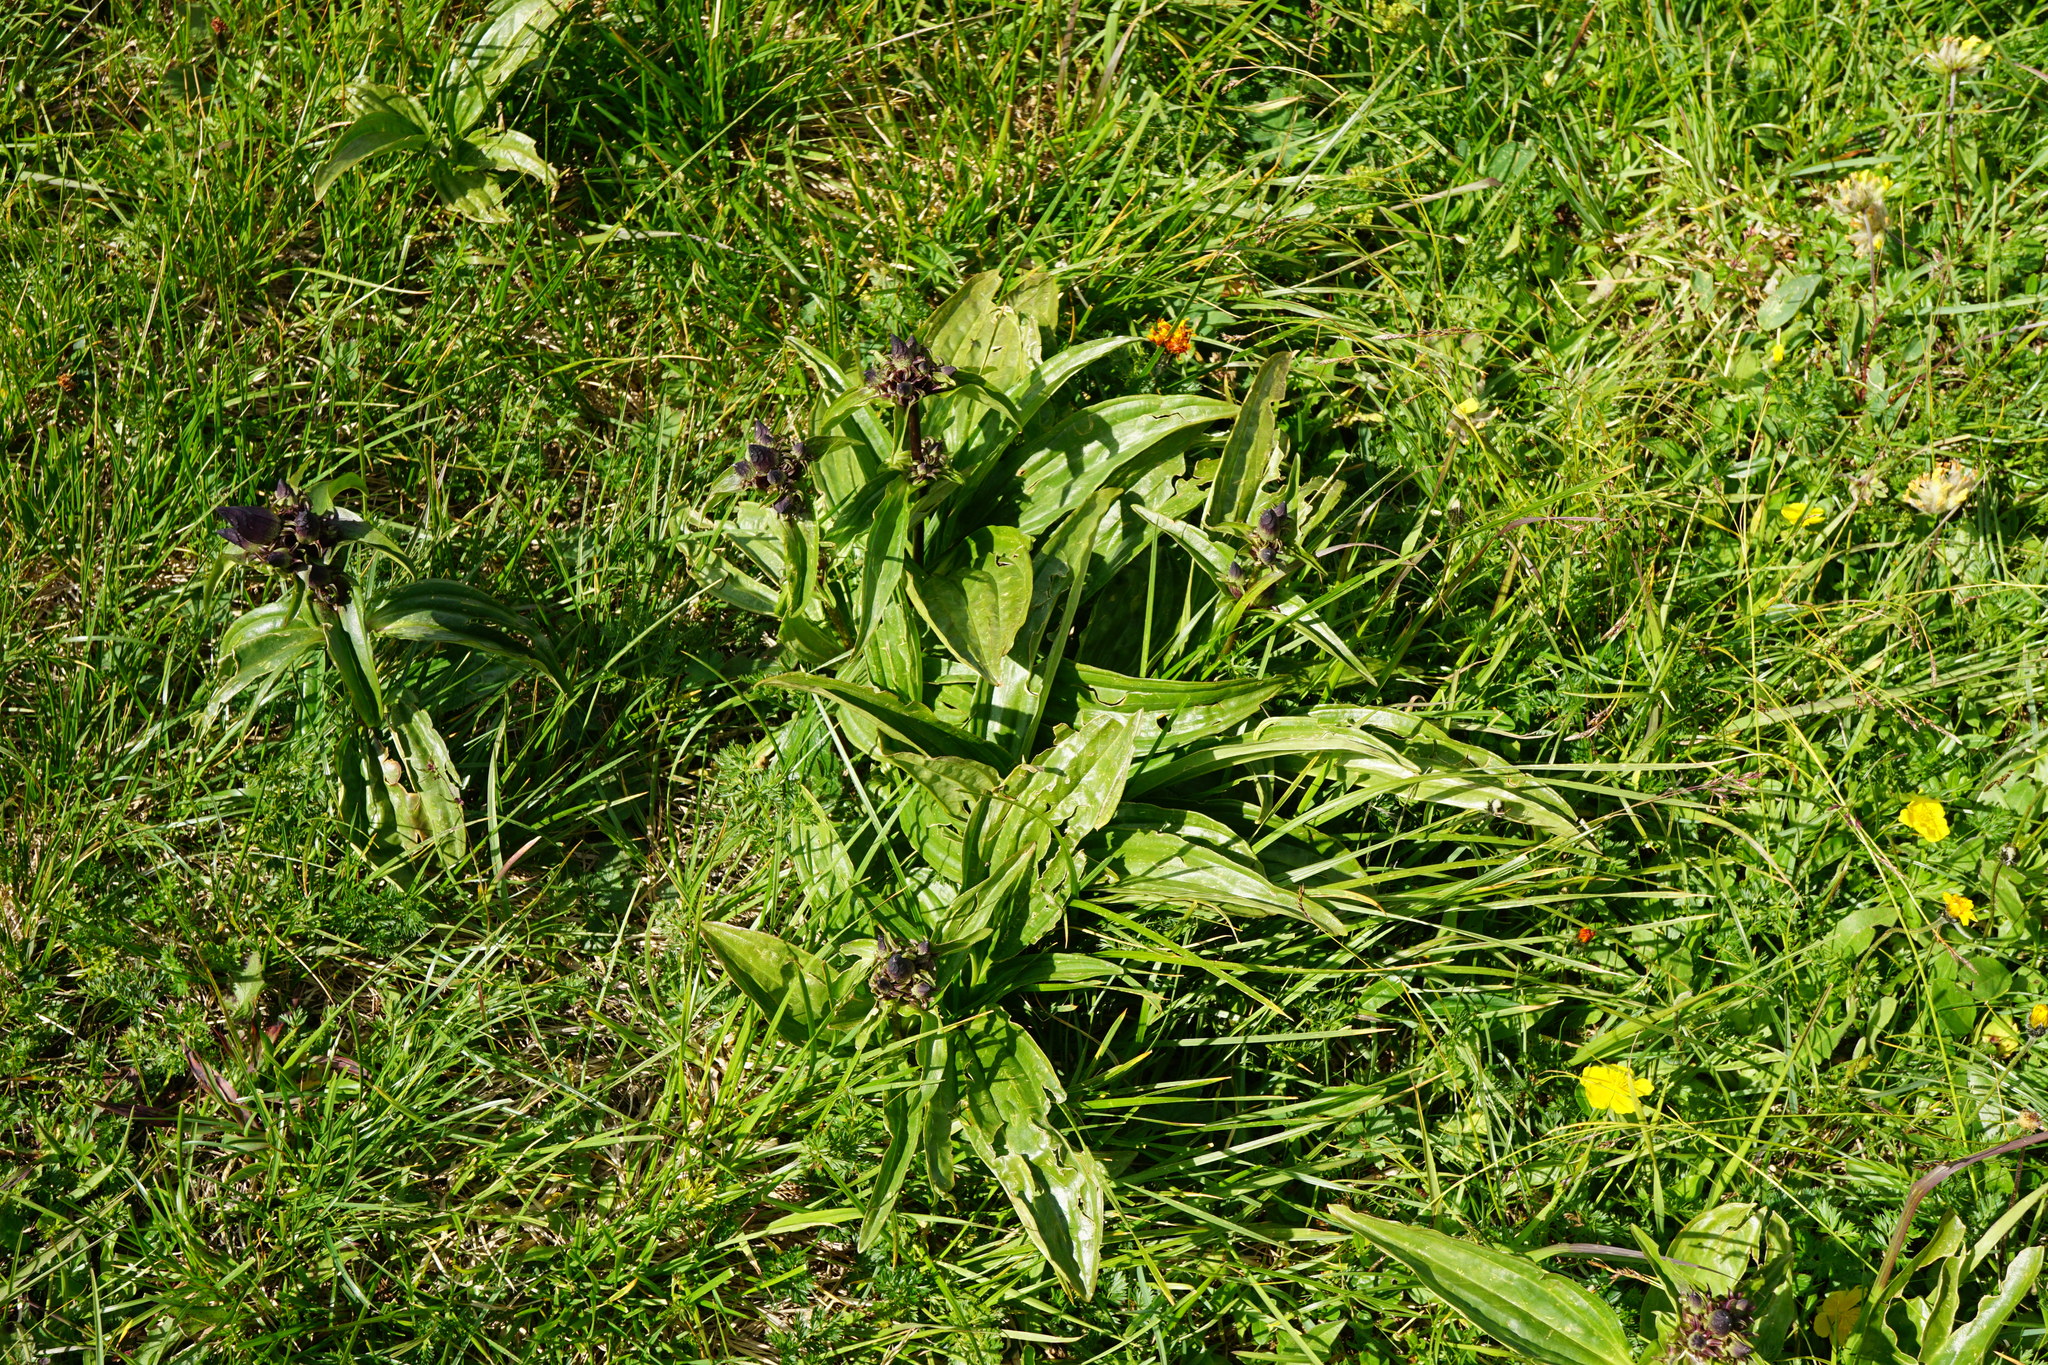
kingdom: Plantae
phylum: Tracheophyta
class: Magnoliopsida
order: Gentianales
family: Gentianaceae
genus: Gentiana
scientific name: Gentiana pannonica
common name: Hungarian gentian
